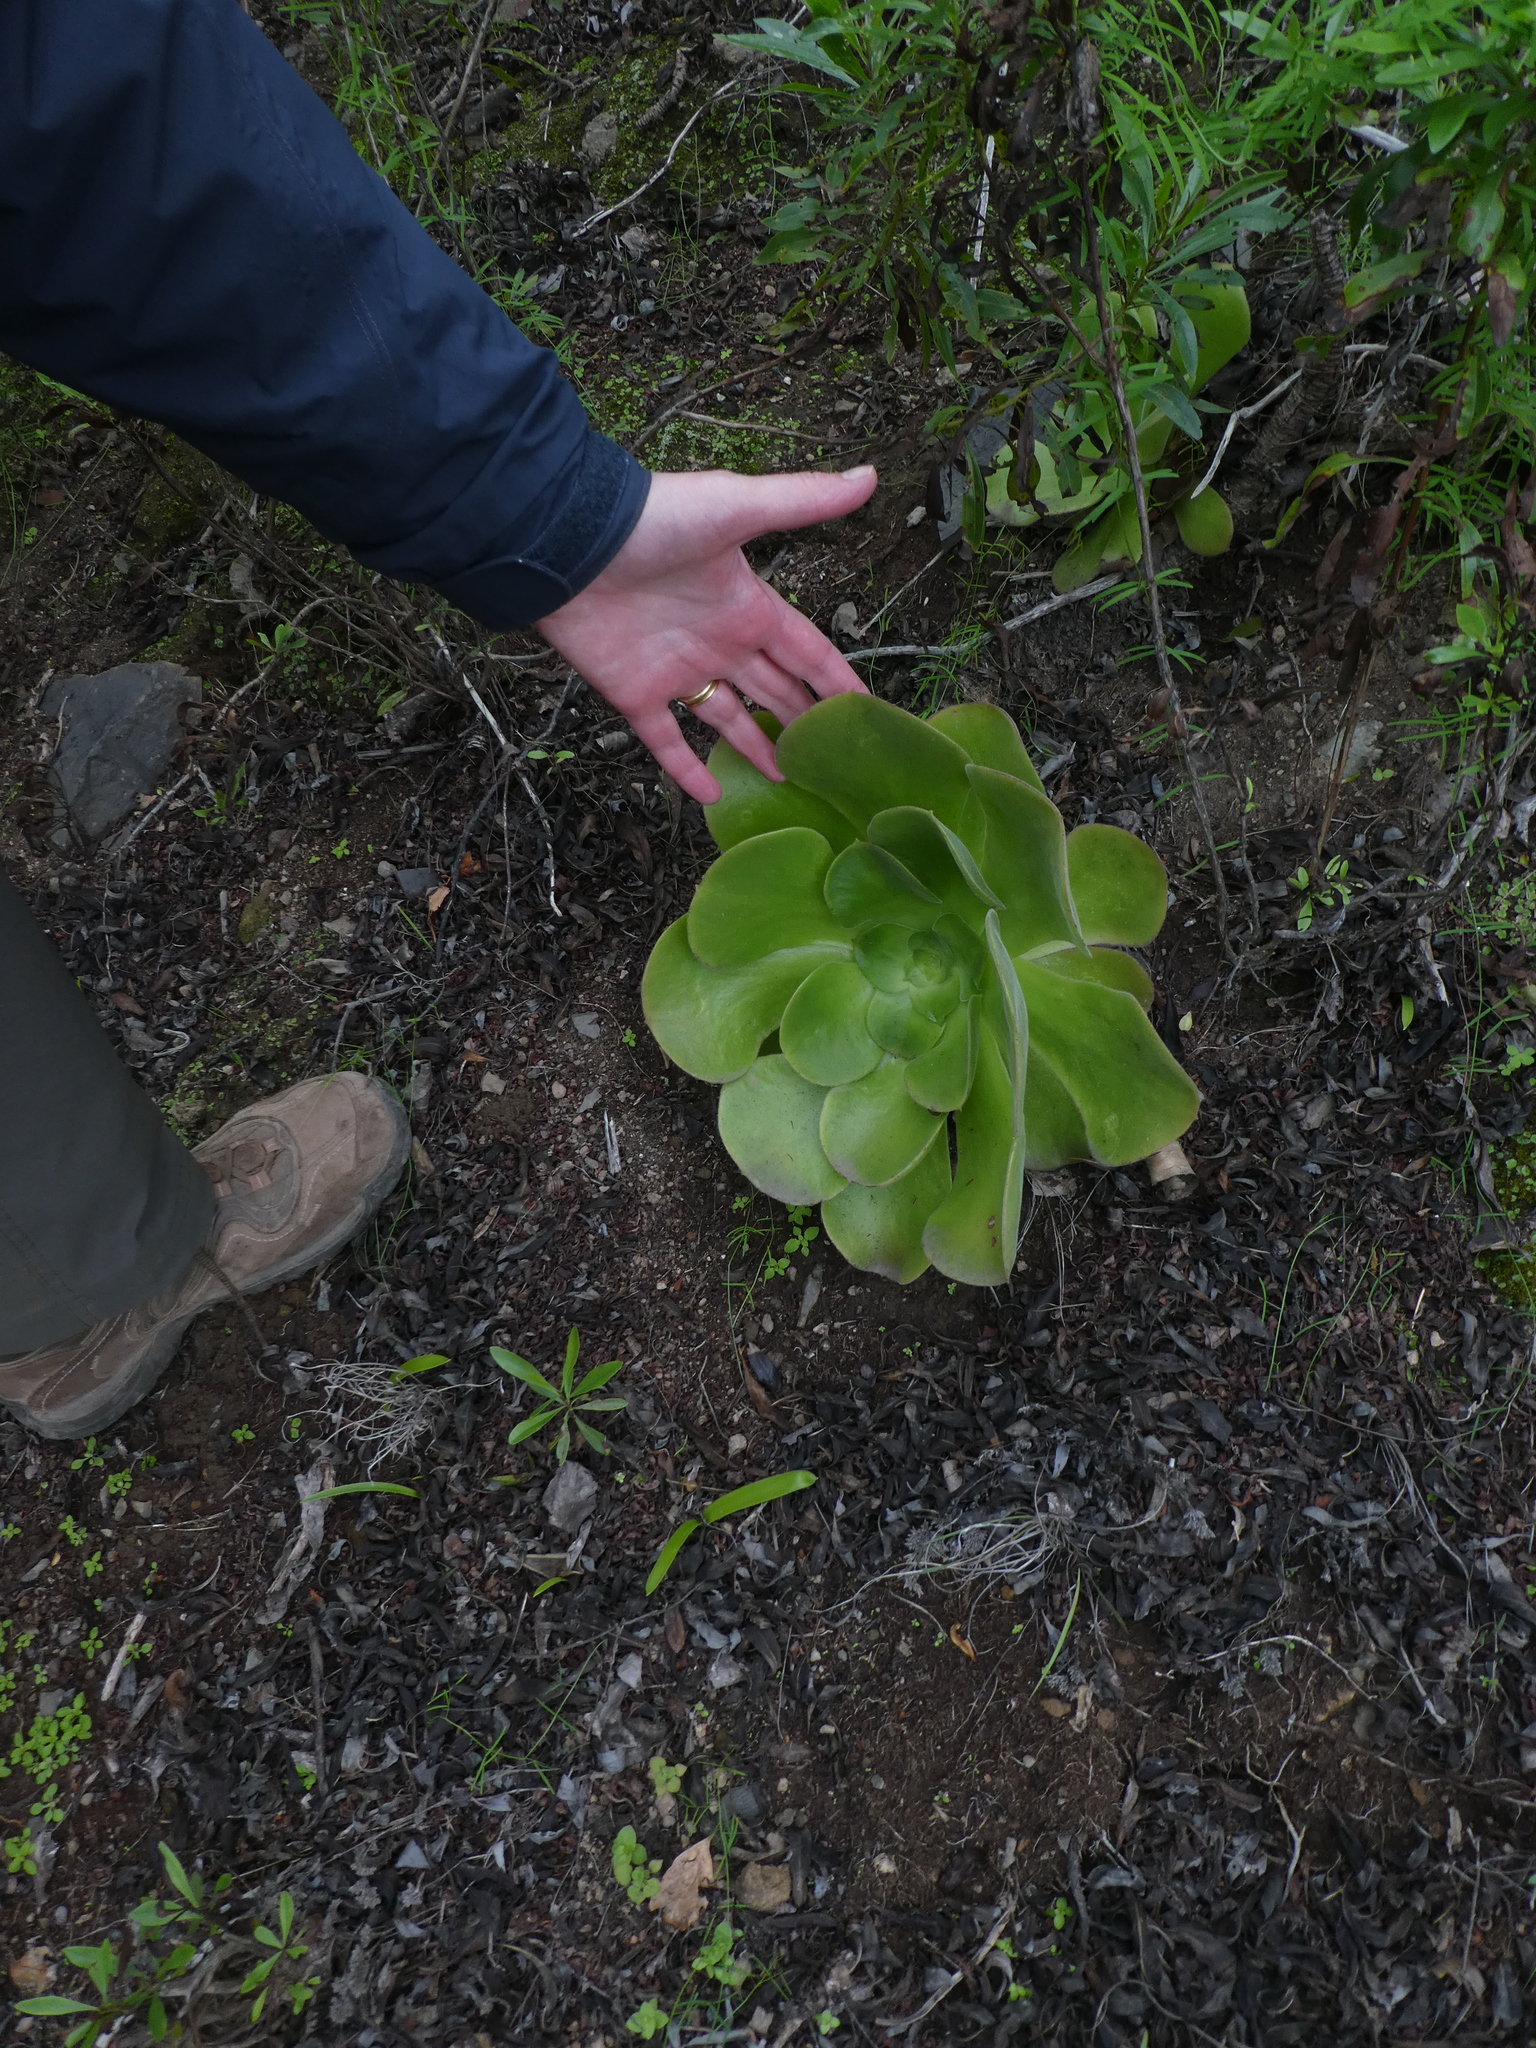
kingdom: Plantae
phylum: Tracheophyta
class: Magnoliopsida
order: Saxifragales
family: Crassulaceae
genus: Aeonium
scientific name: Aeonium canariense
